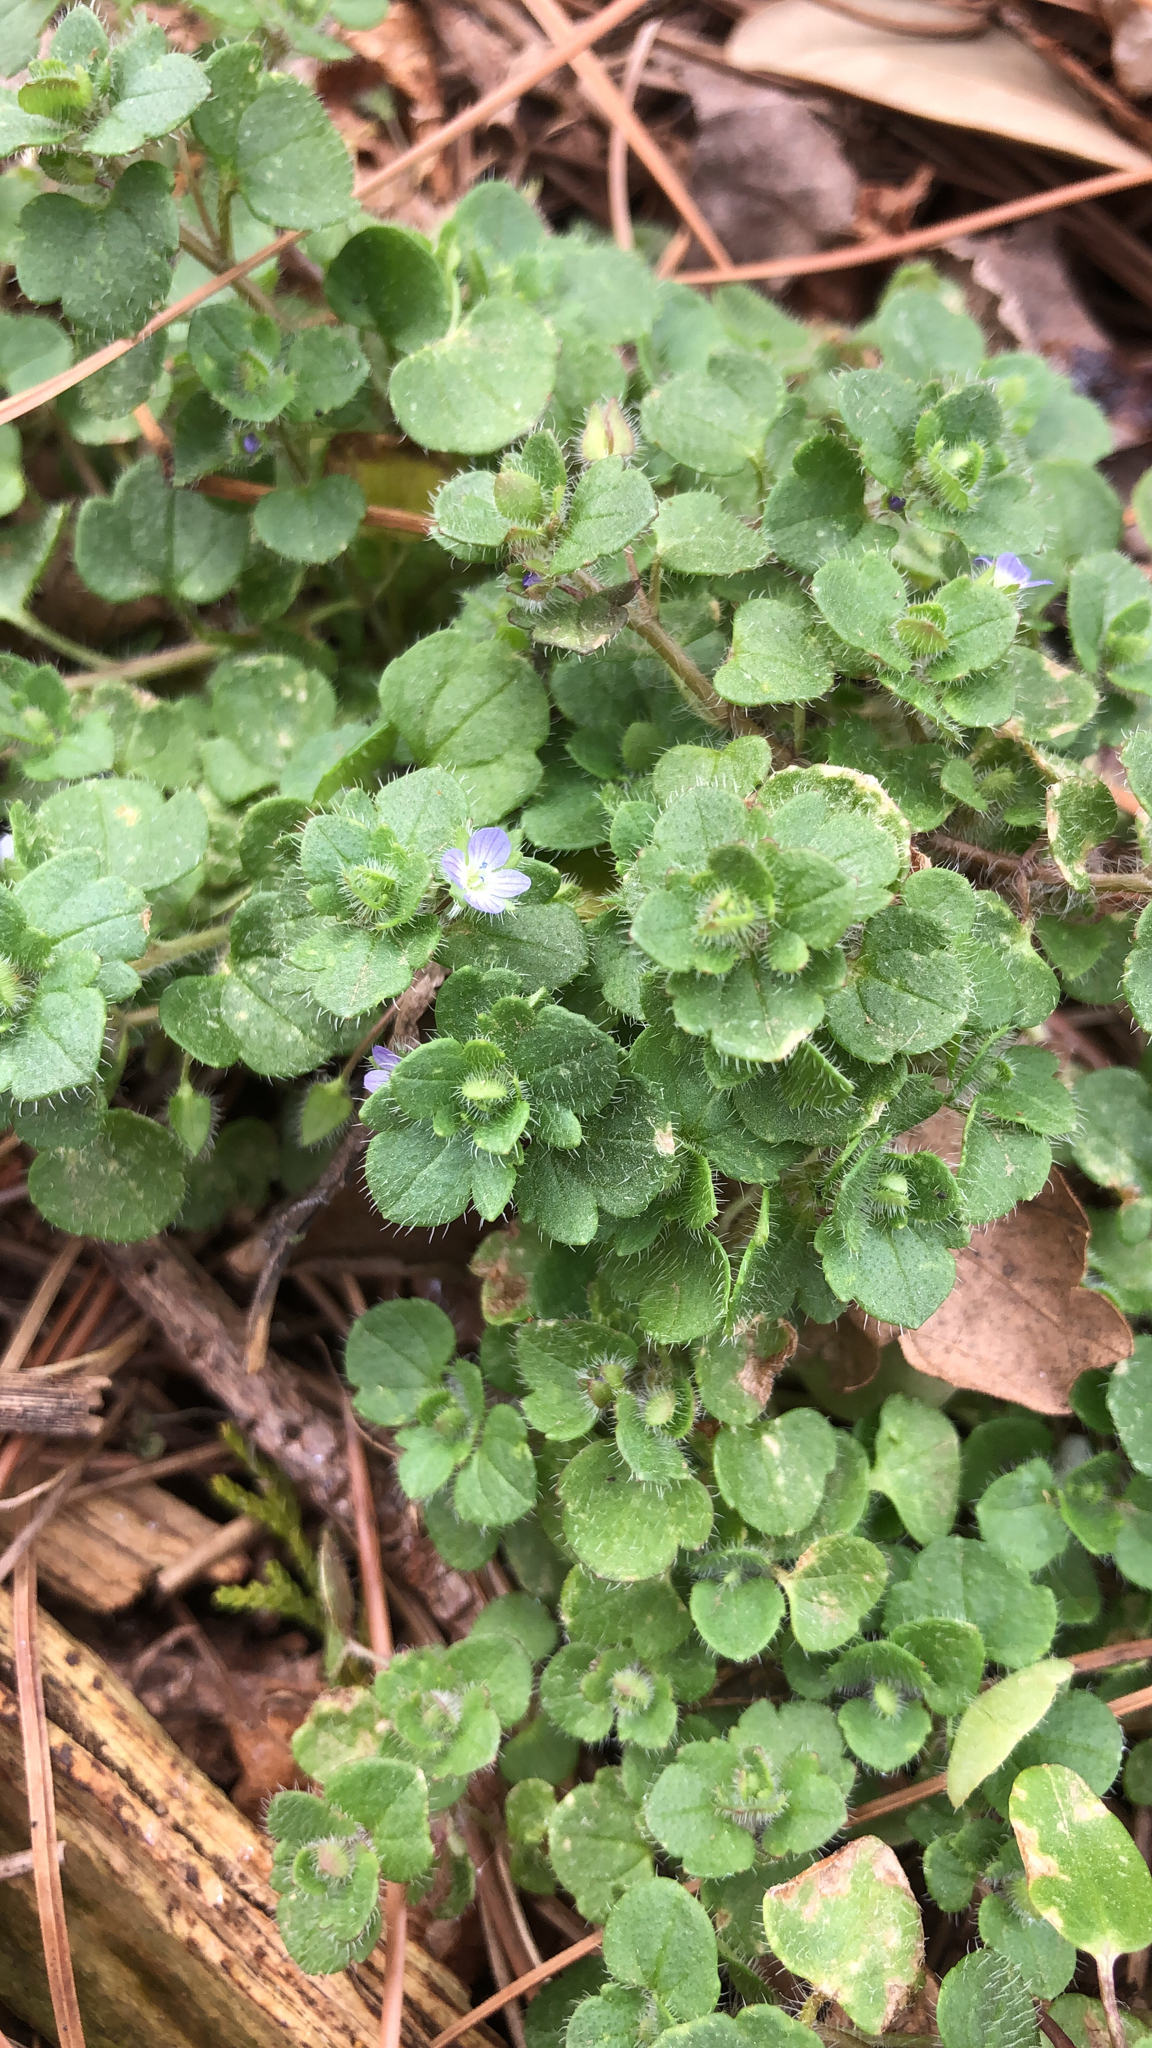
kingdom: Plantae
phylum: Tracheophyta
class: Magnoliopsida
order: Lamiales
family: Plantaginaceae
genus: Veronica
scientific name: Veronica hederifolia
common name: Ivy-leaved speedwell
